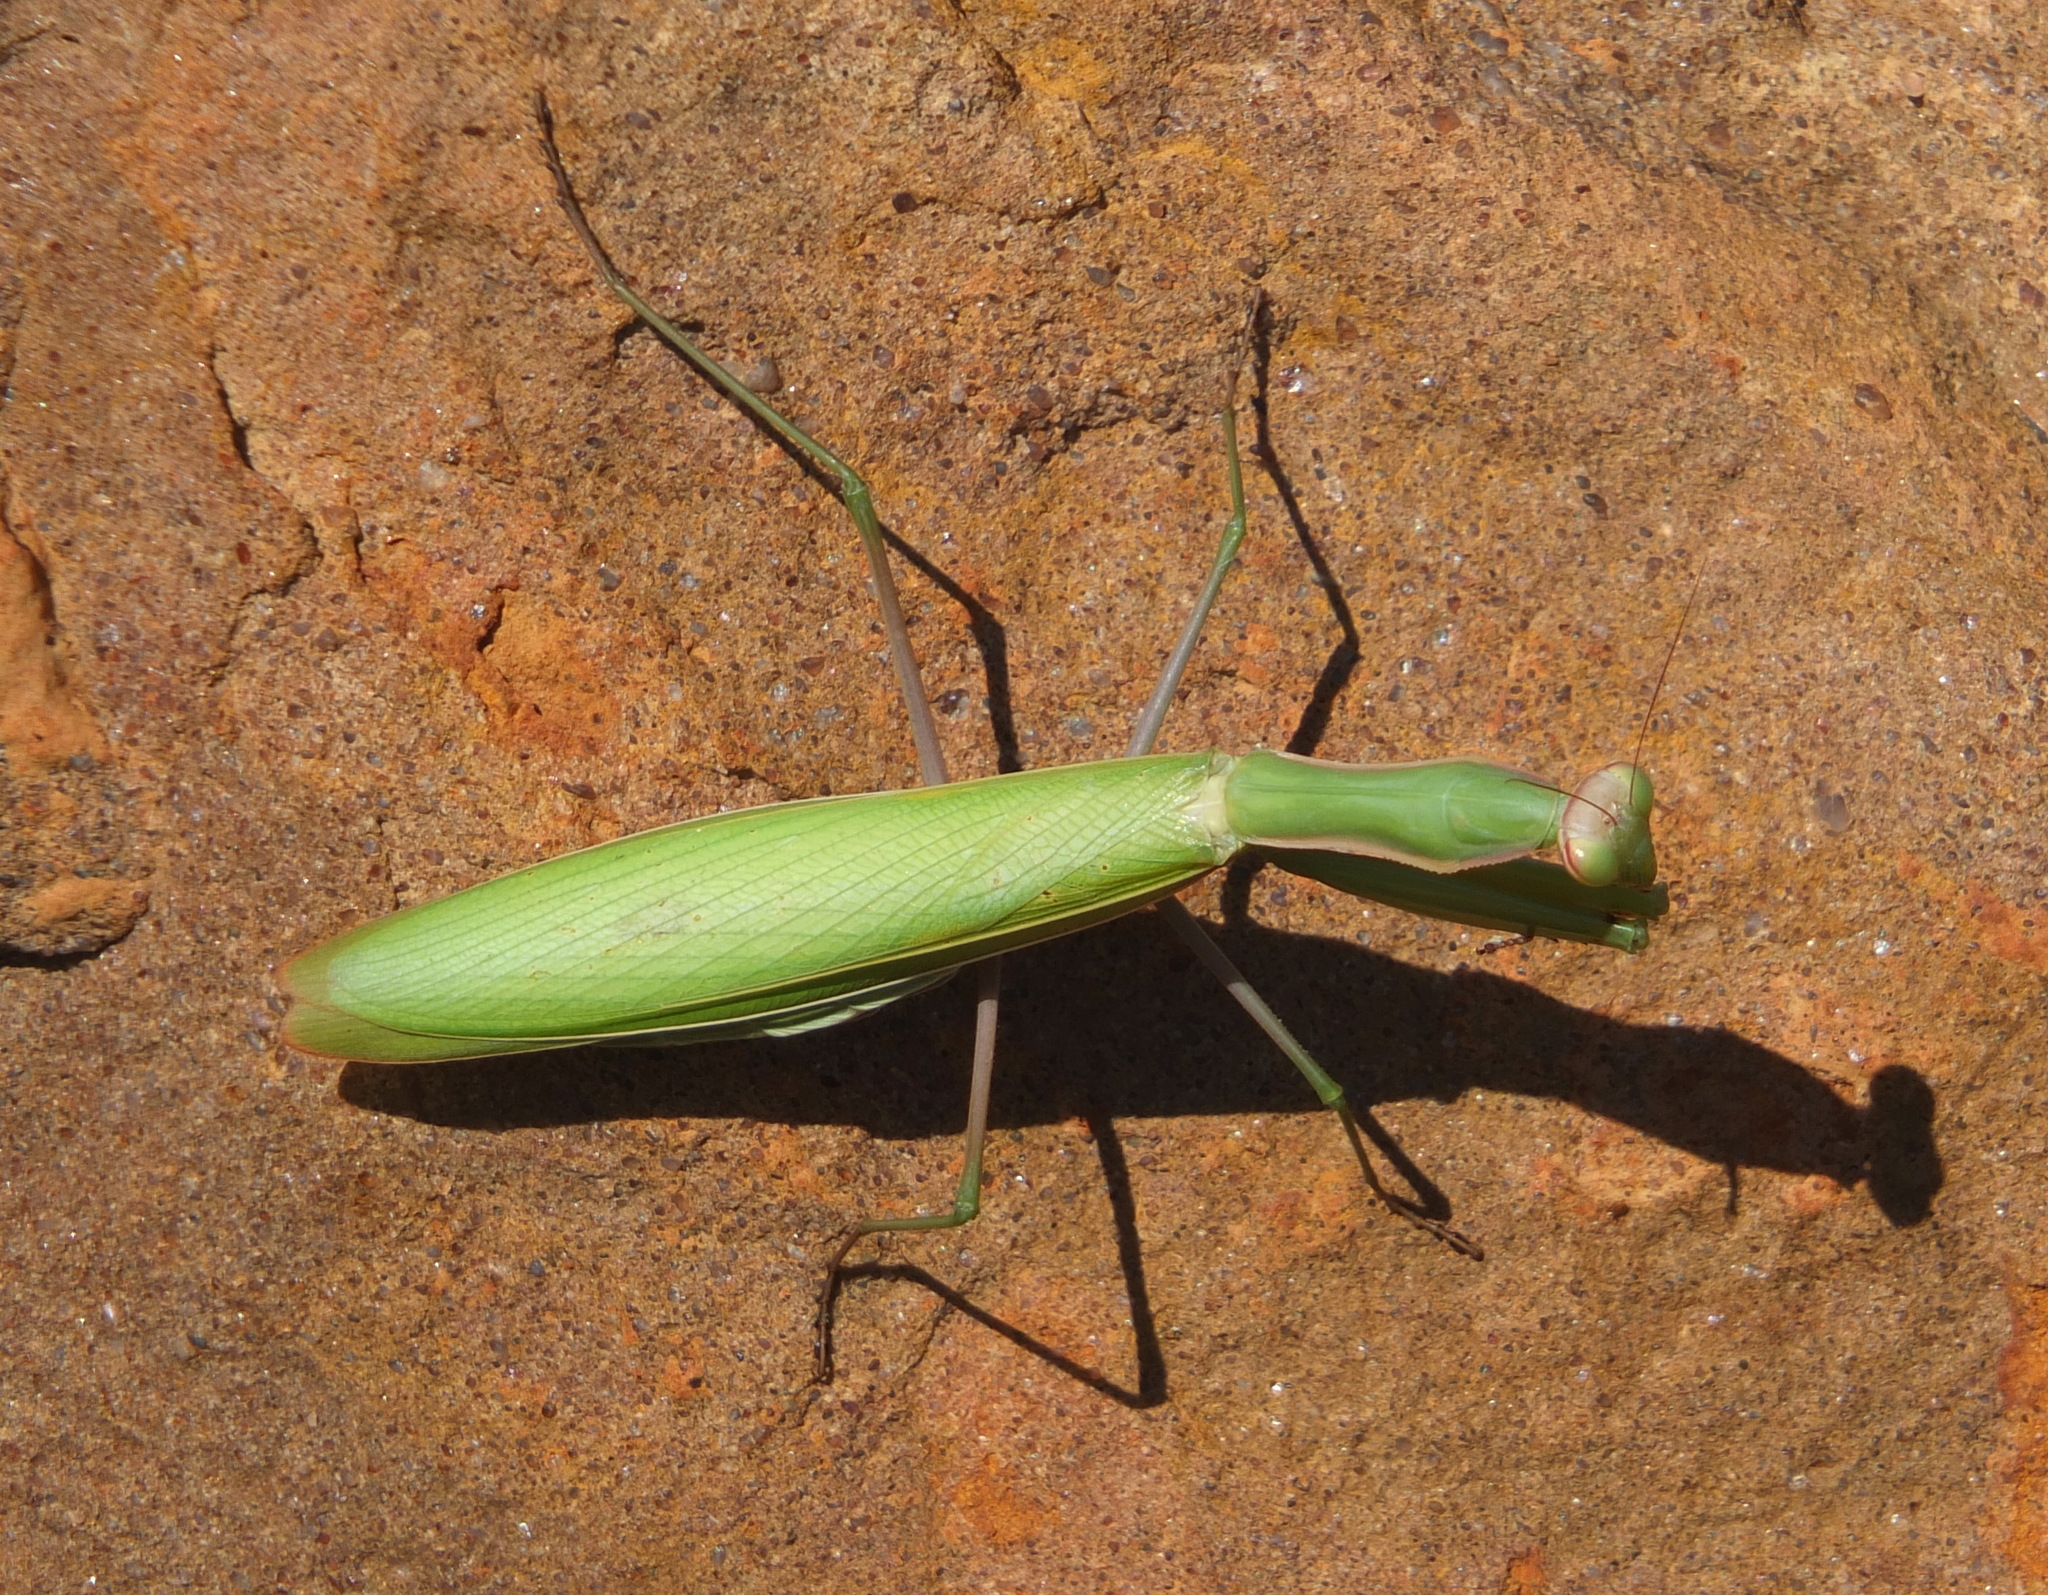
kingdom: Animalia
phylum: Arthropoda
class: Insecta
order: Mantodea
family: Mantidae
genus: Mantis
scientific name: Mantis religiosa
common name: Praying mantis
